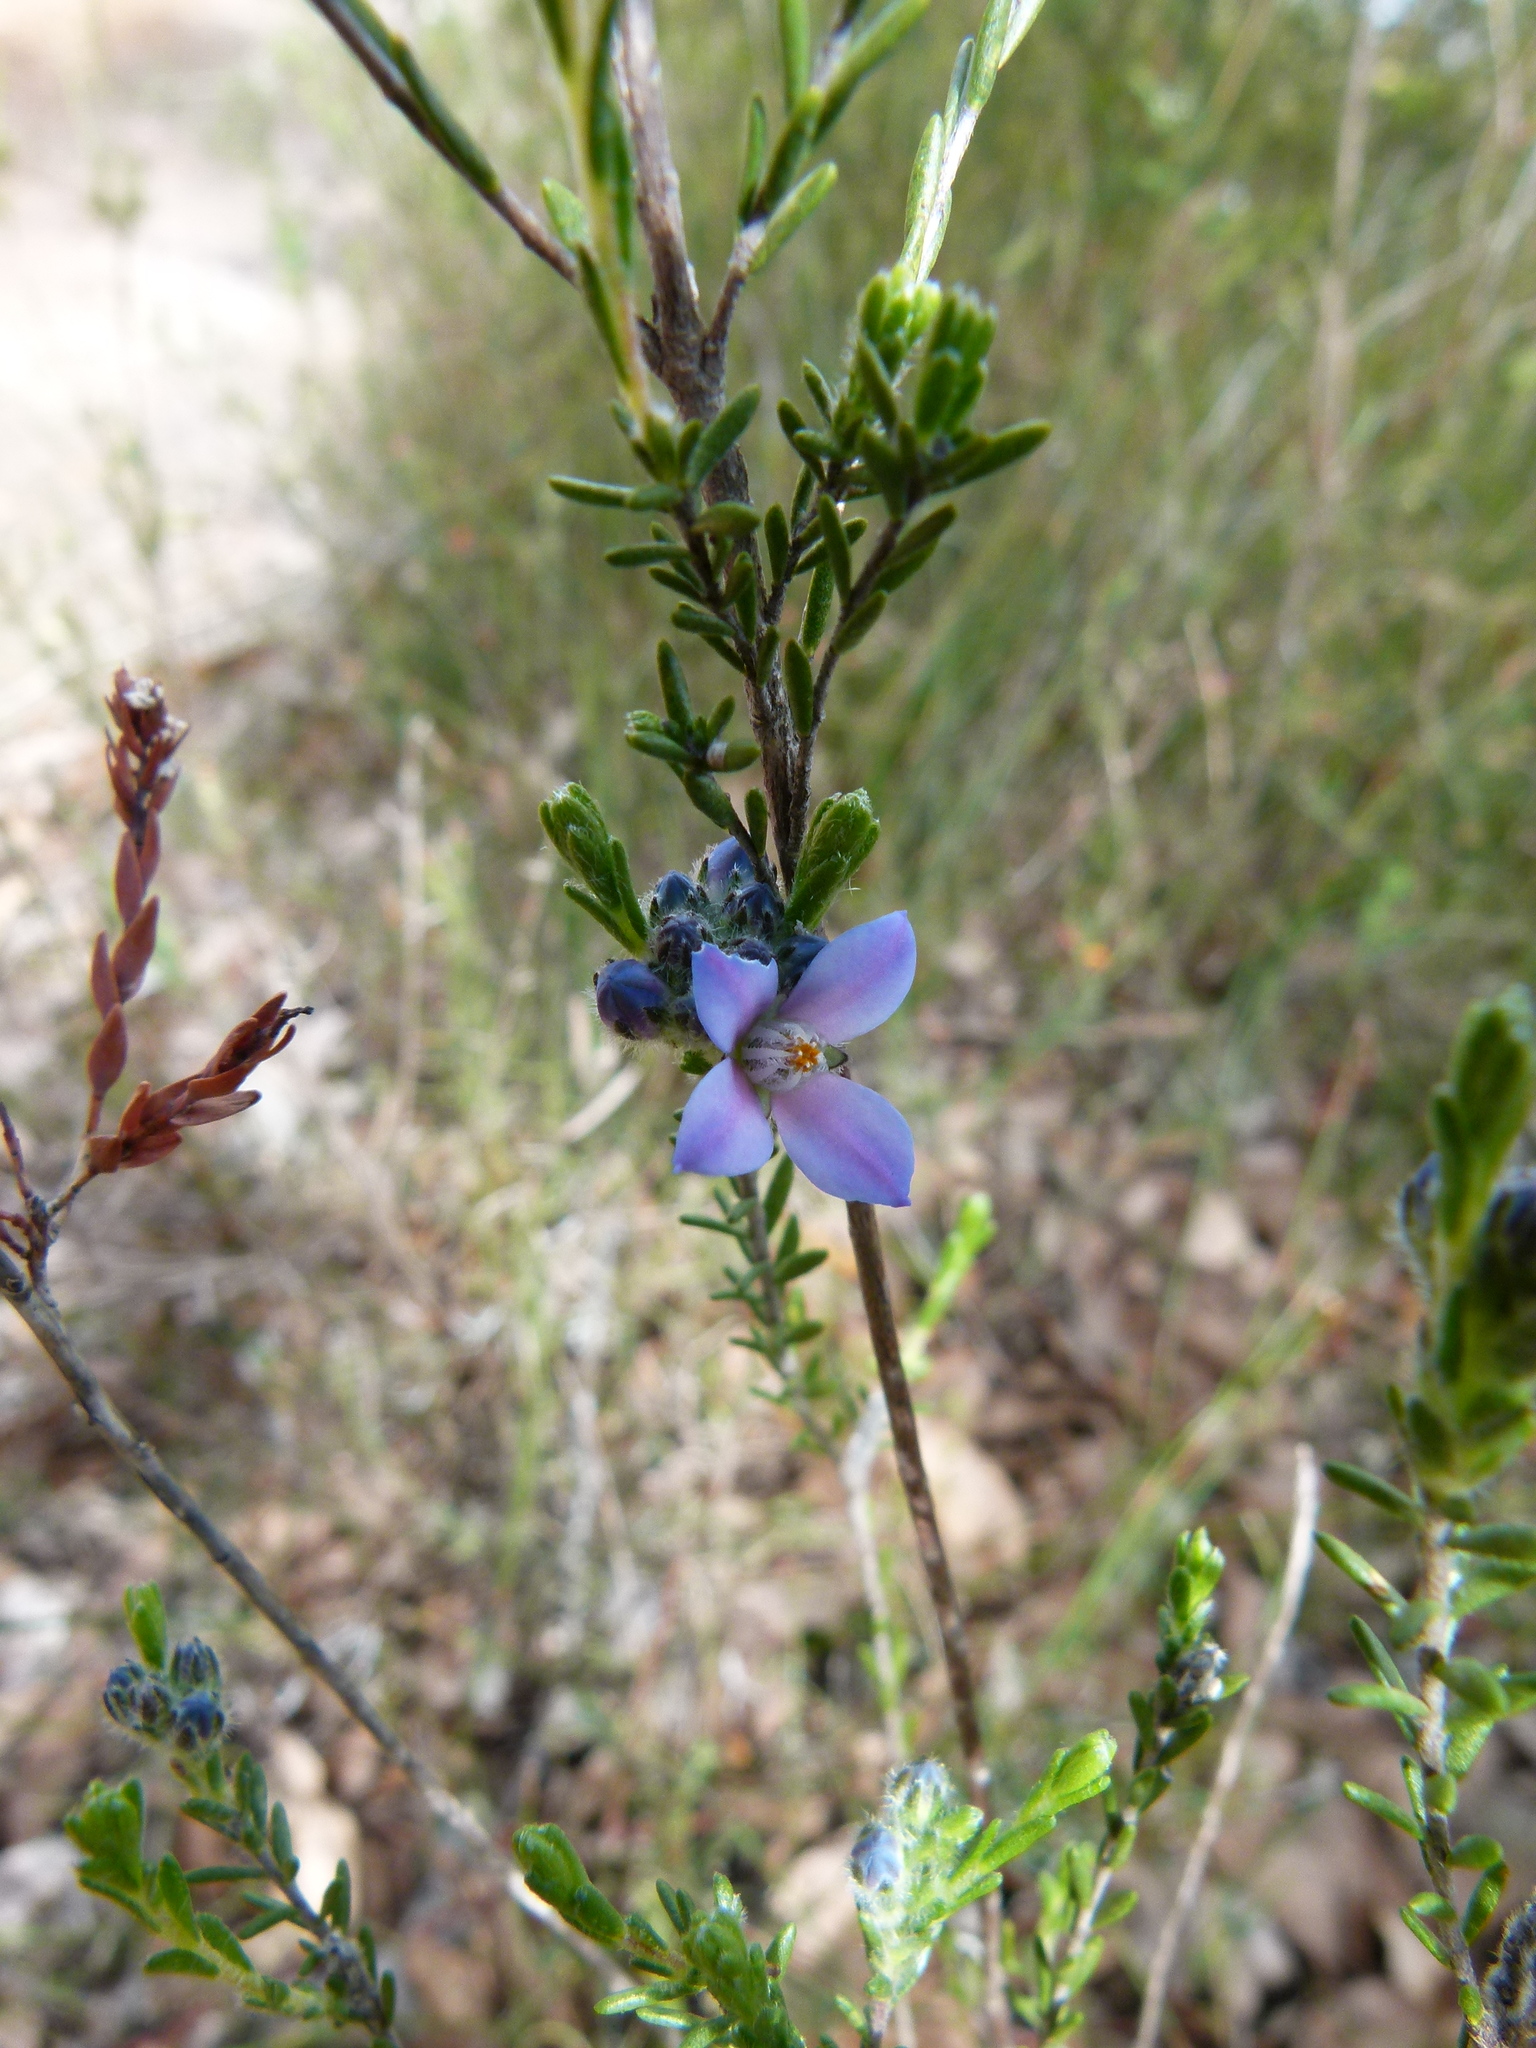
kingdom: Plantae
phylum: Tracheophyta
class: Magnoliopsida
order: Sapindales
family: Rutaceae
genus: Cyanothamnus
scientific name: Cyanothamnus coerulescens
